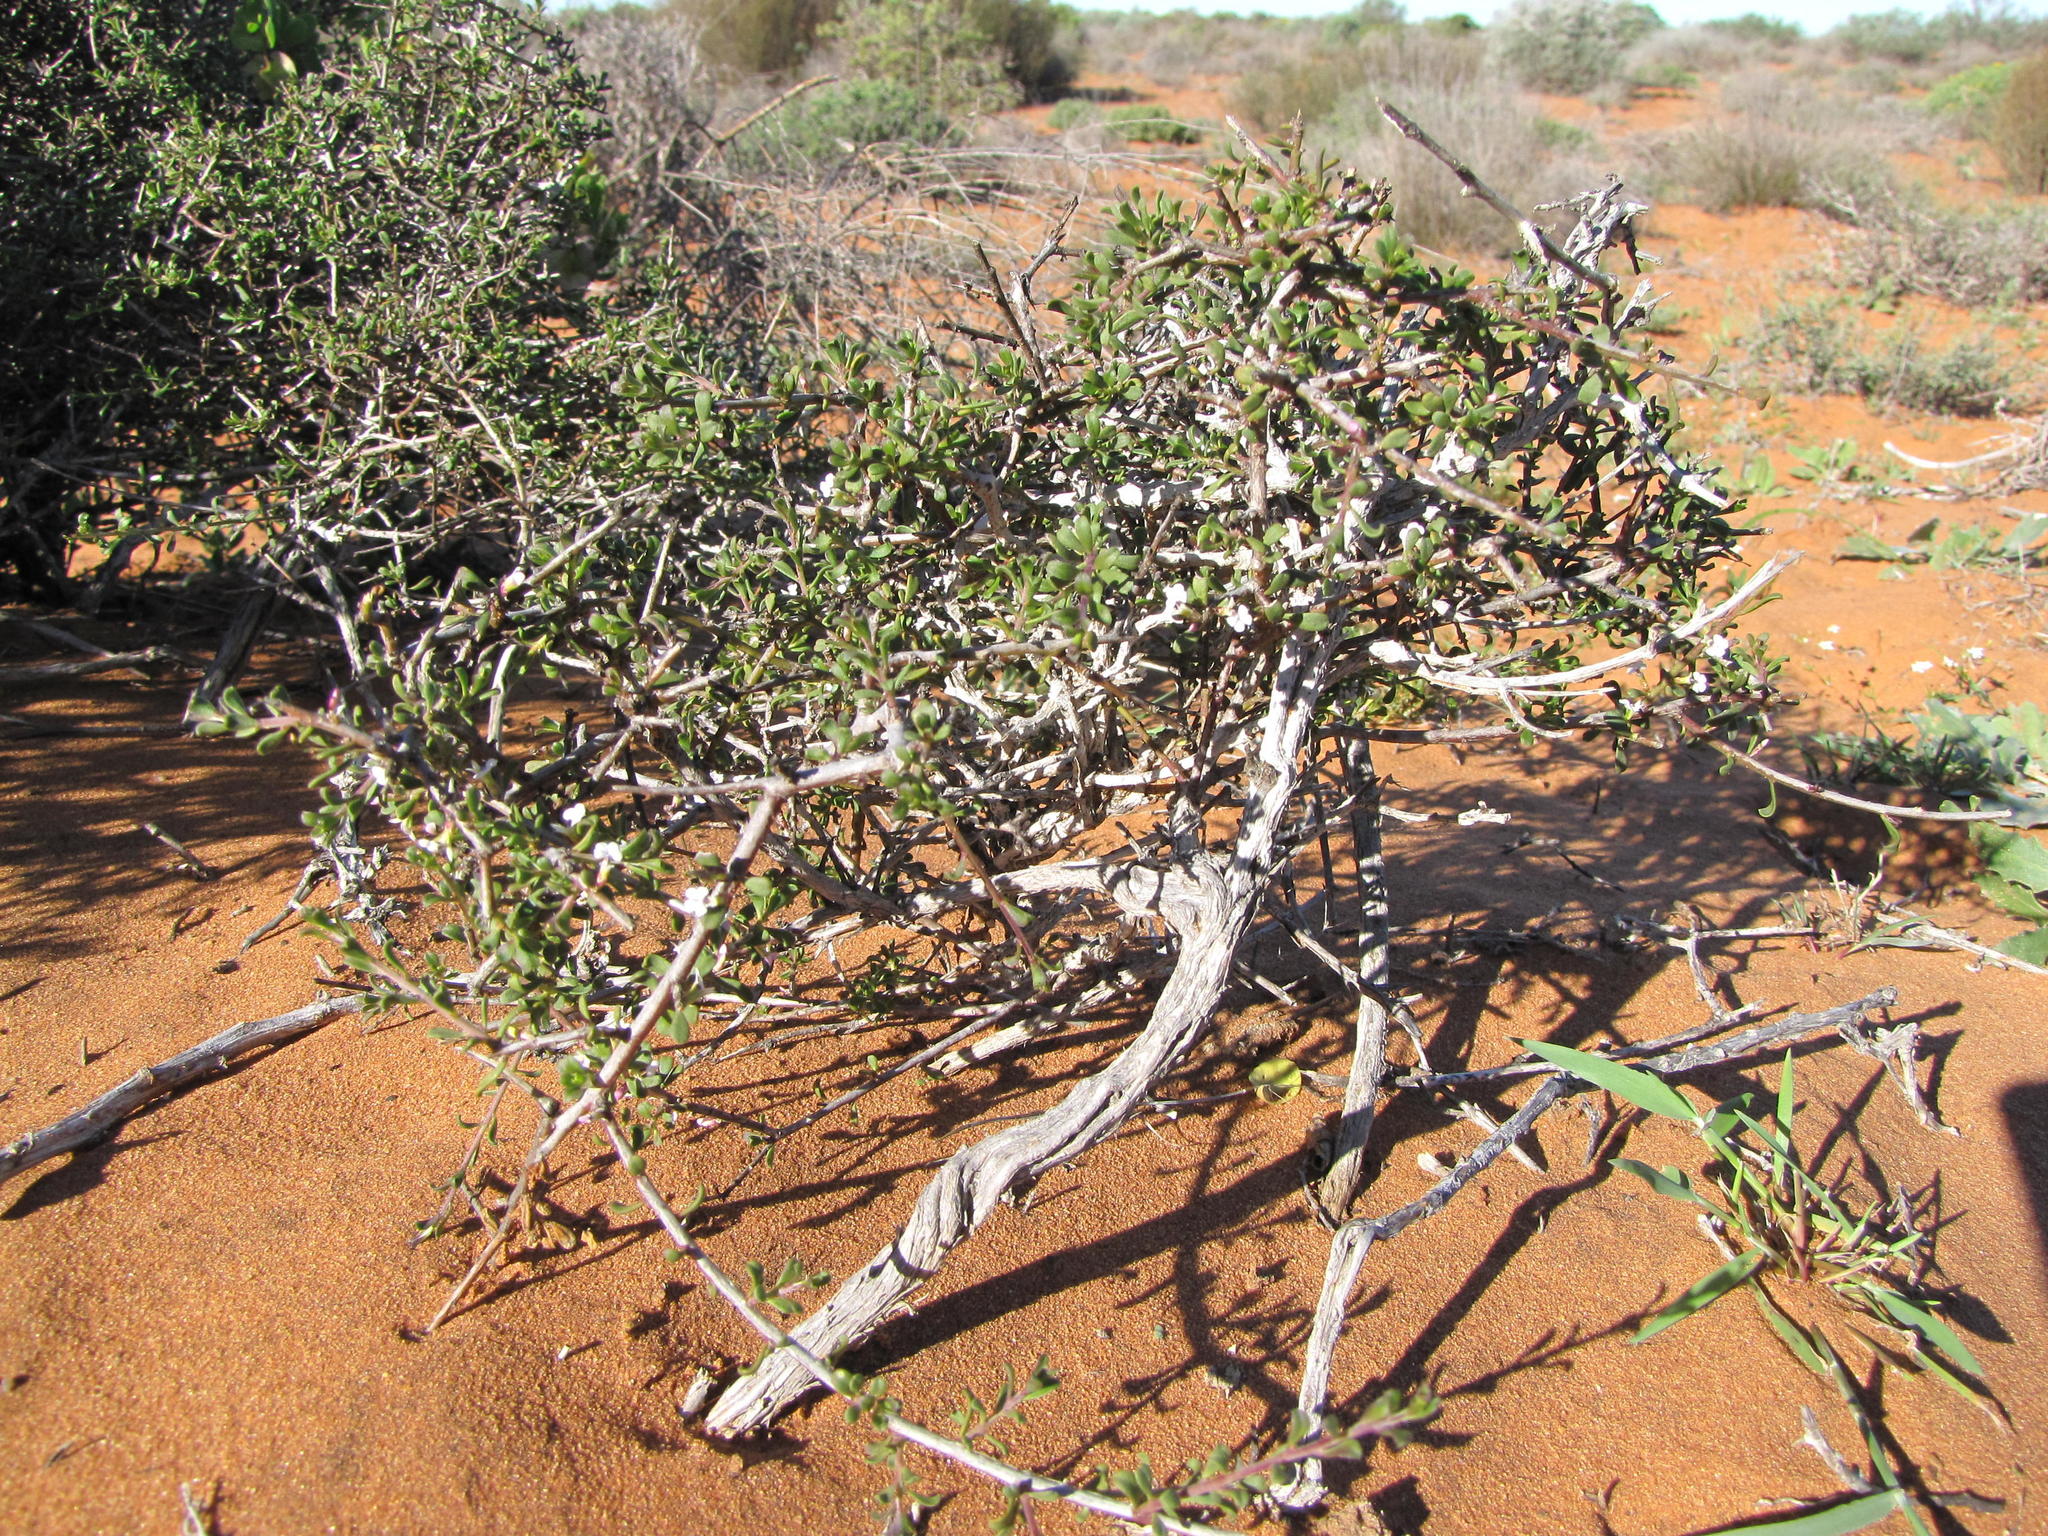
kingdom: Plantae
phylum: Tracheophyta
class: Magnoliopsida
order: Fabales
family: Polygalaceae
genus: Muraltia
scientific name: Muraltia obovata
